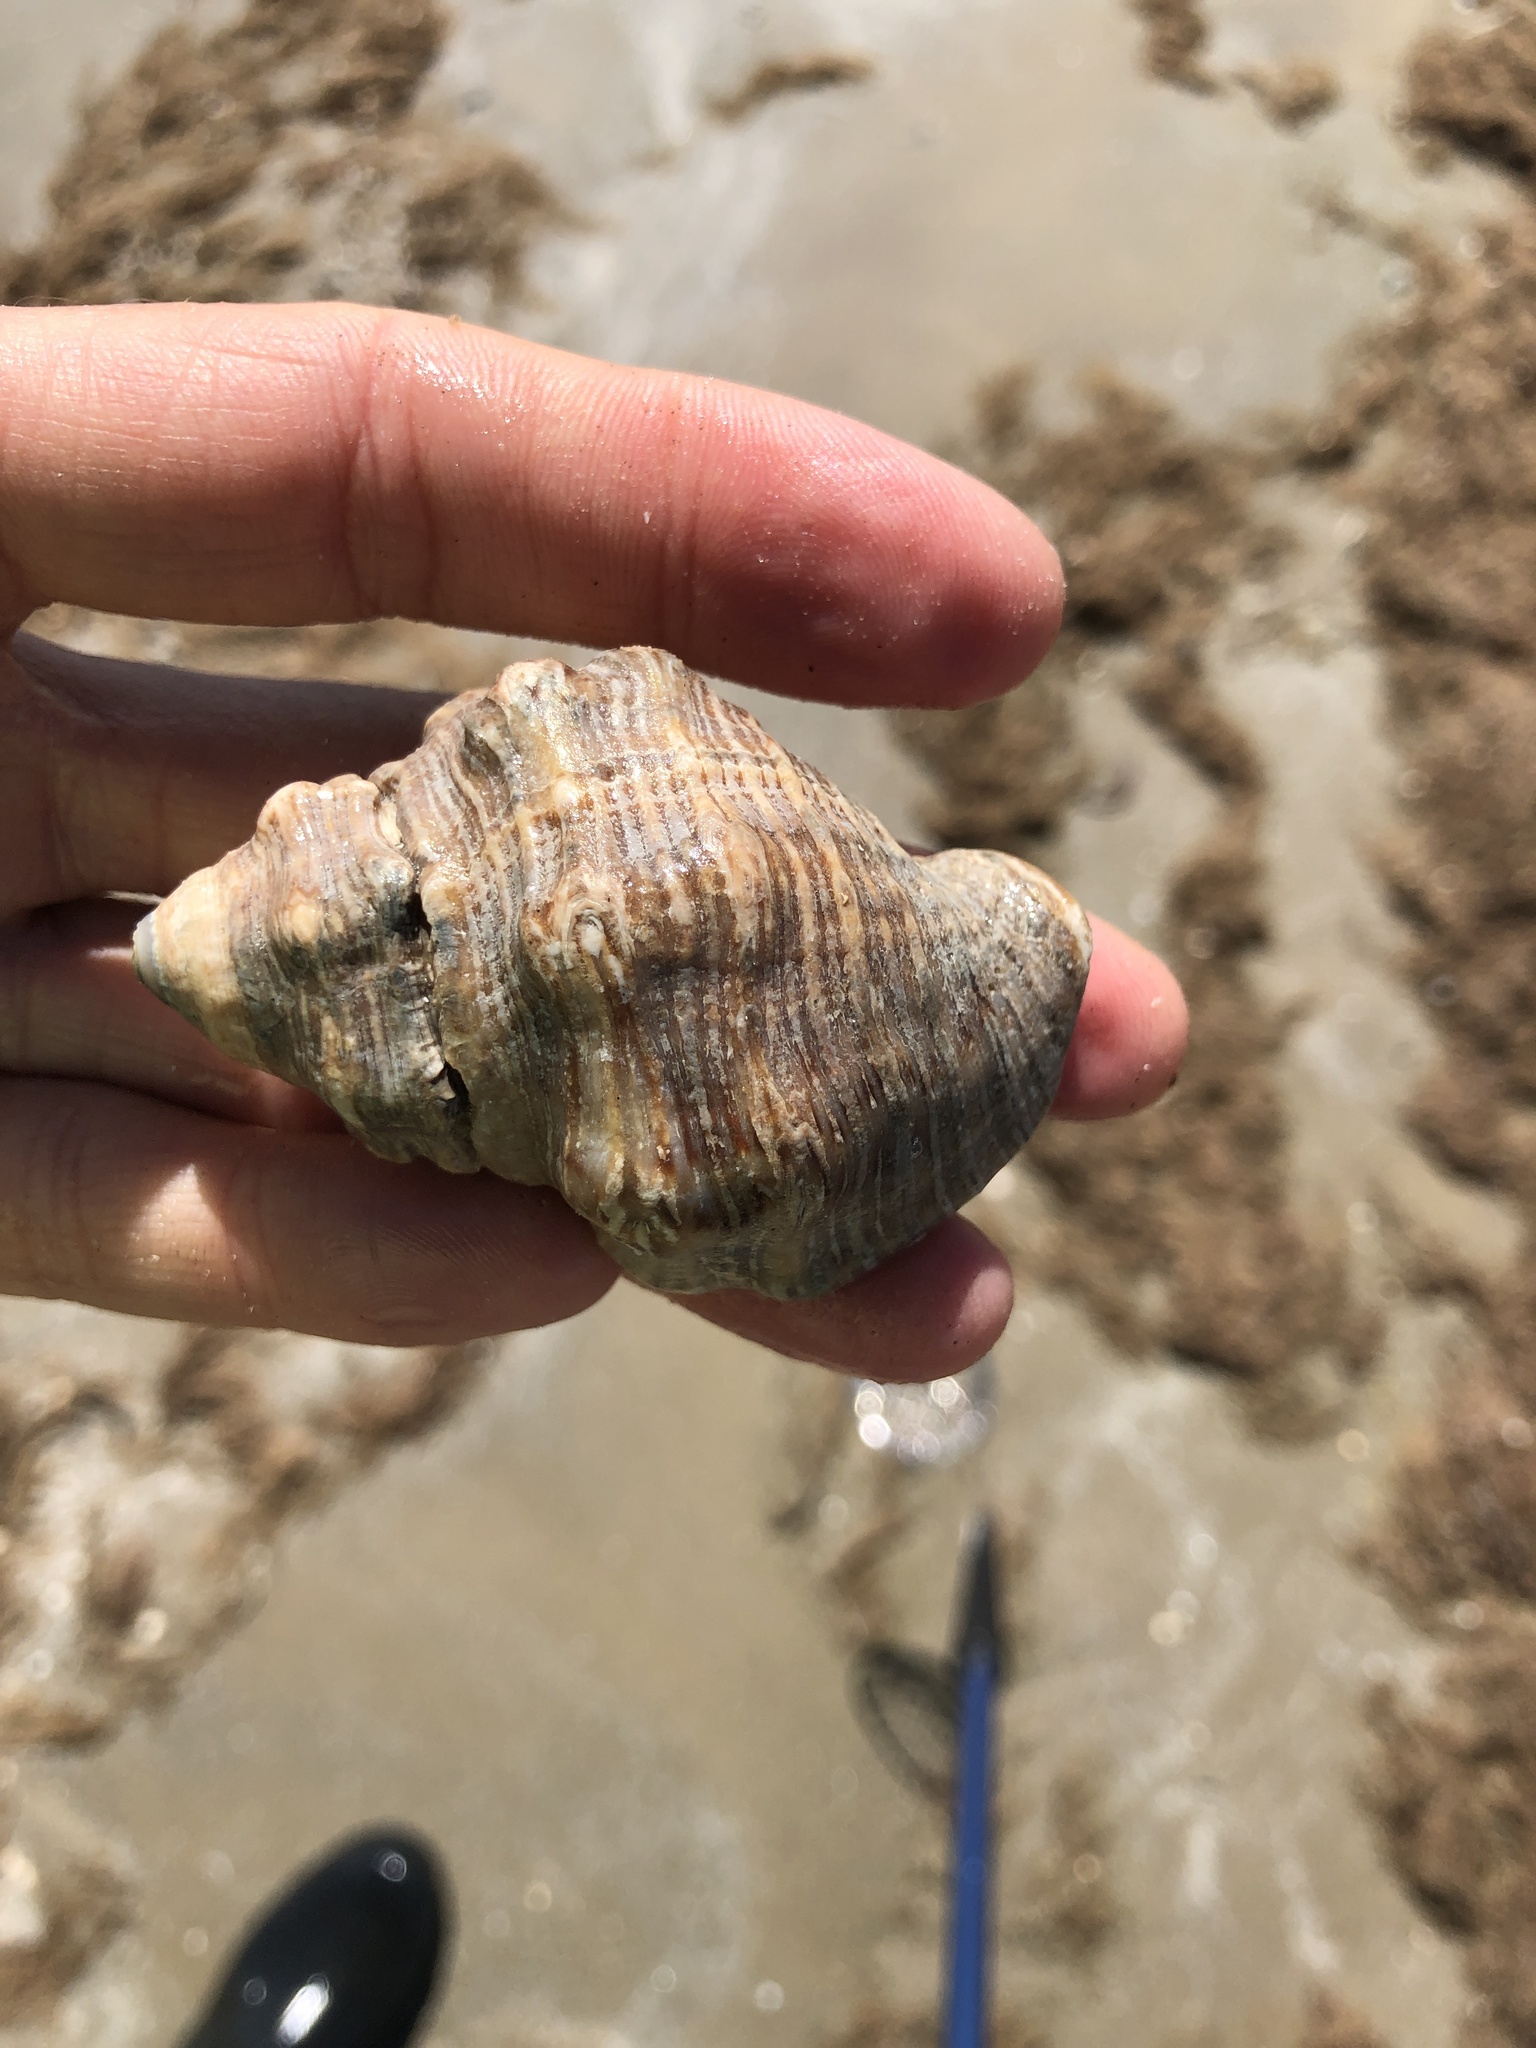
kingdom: Animalia
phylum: Mollusca
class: Gastropoda
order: Neogastropoda
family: Muricidae
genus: Stramonita
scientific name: Stramonita canaliculata
